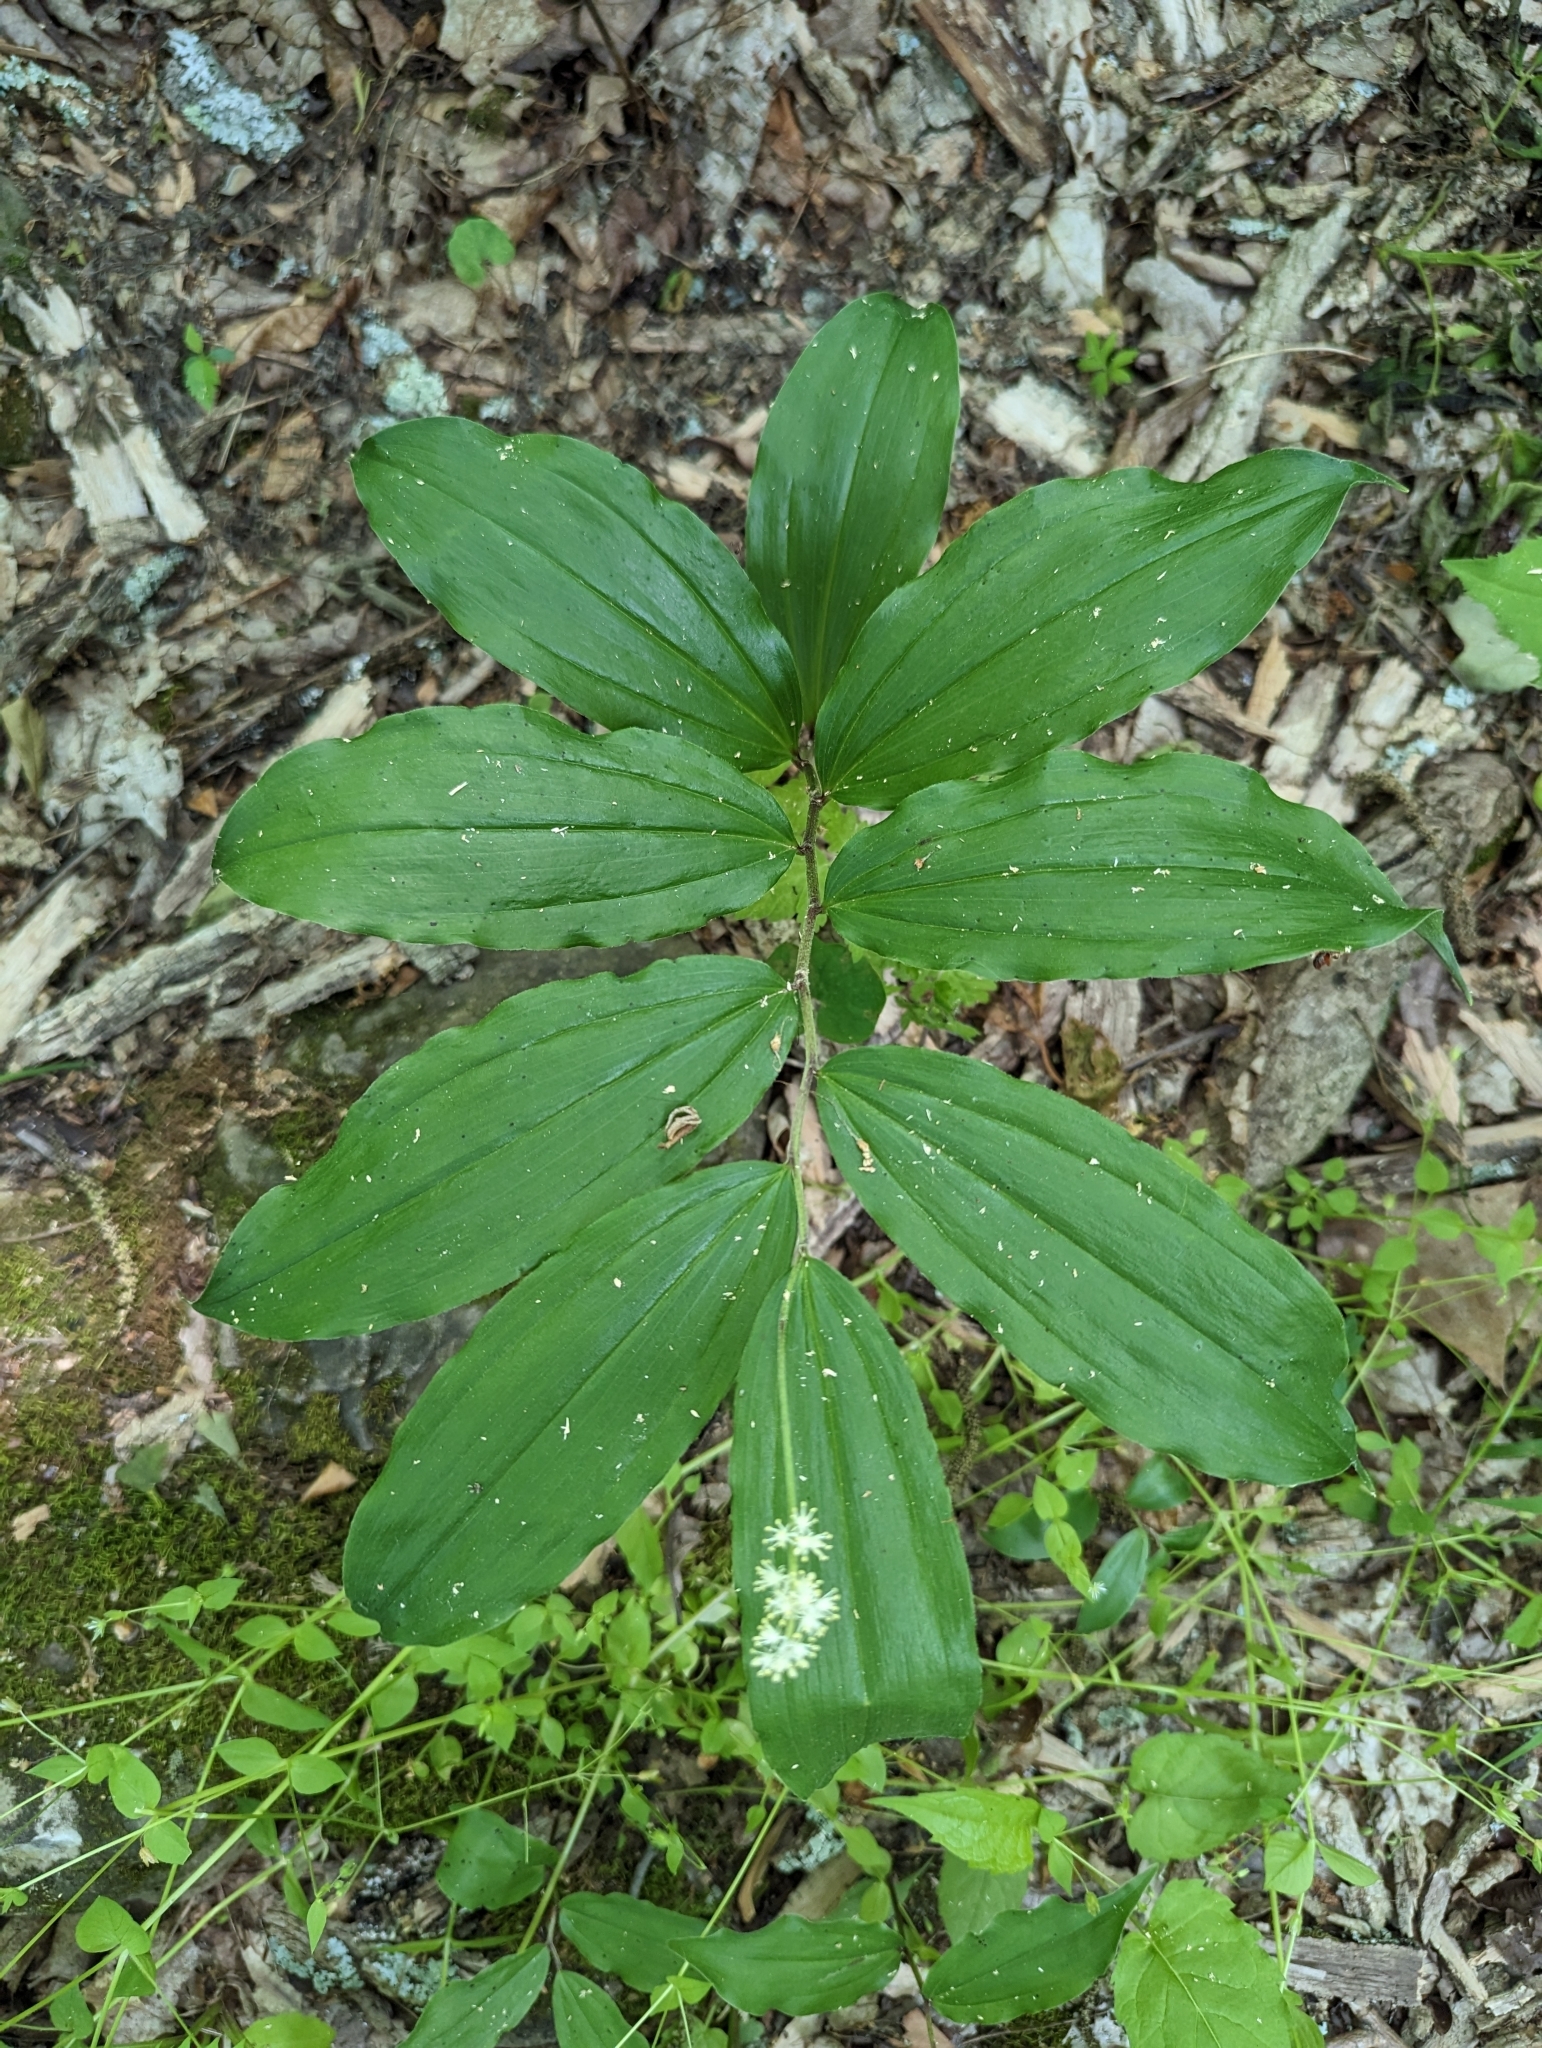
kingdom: Plantae
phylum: Tracheophyta
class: Liliopsida
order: Asparagales
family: Asparagaceae
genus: Maianthemum
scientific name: Maianthemum racemosum
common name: False spikenard
